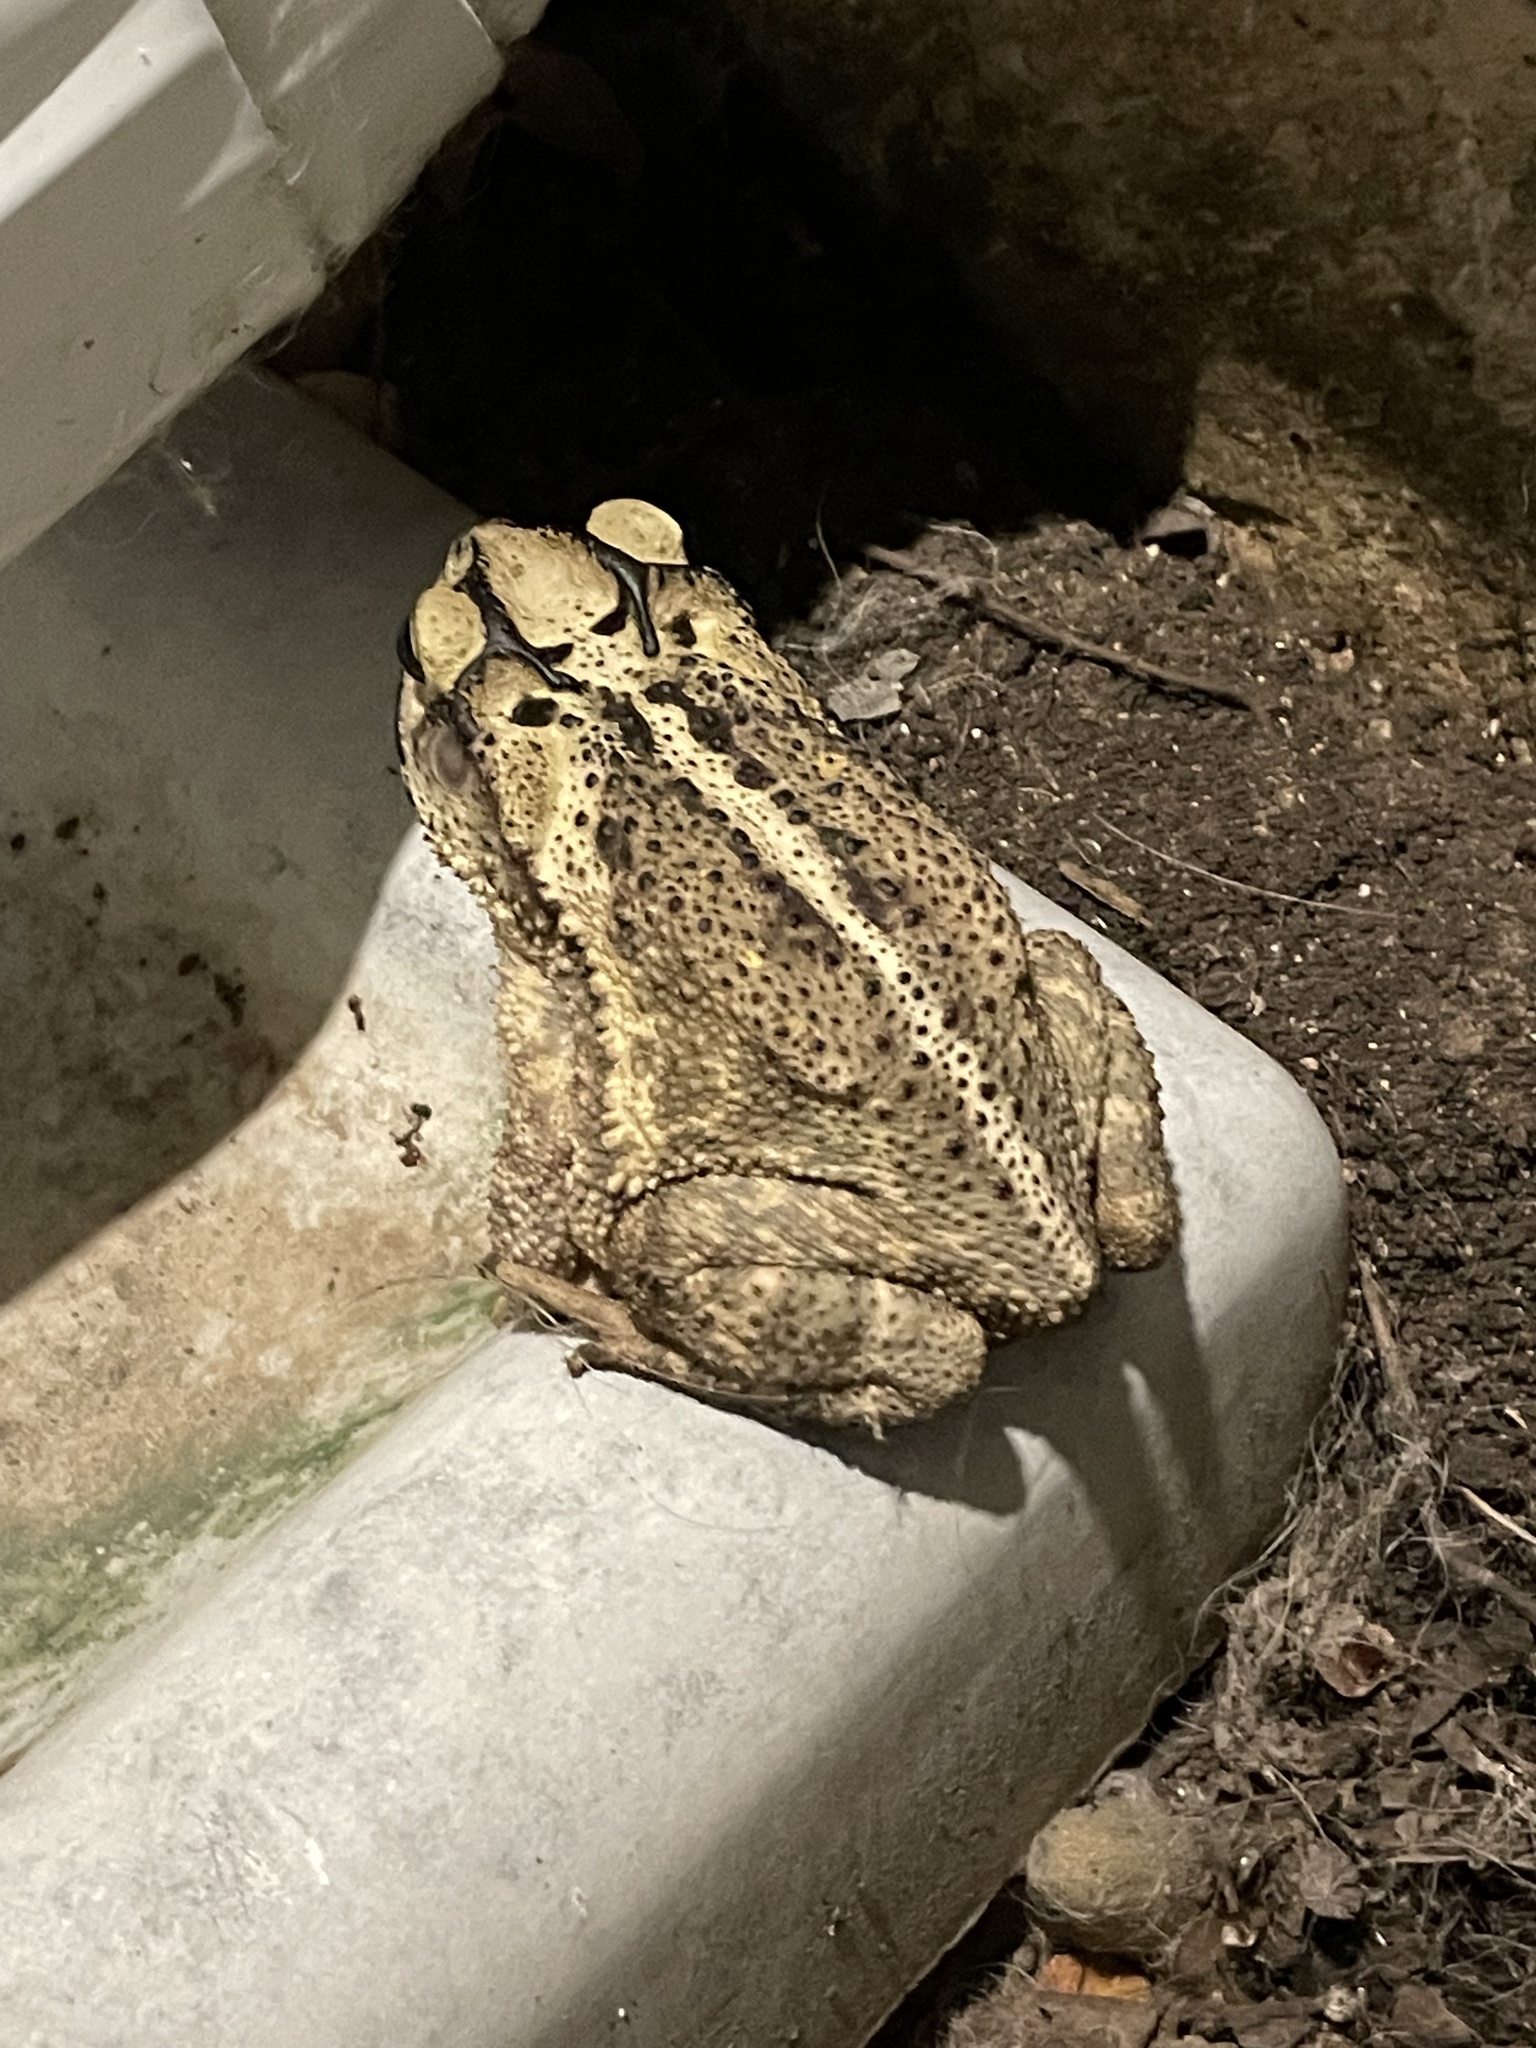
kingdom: Animalia
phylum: Chordata
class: Amphibia
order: Anura
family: Bufonidae
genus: Incilius
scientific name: Incilius nebulifer
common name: Gulf coast toad
